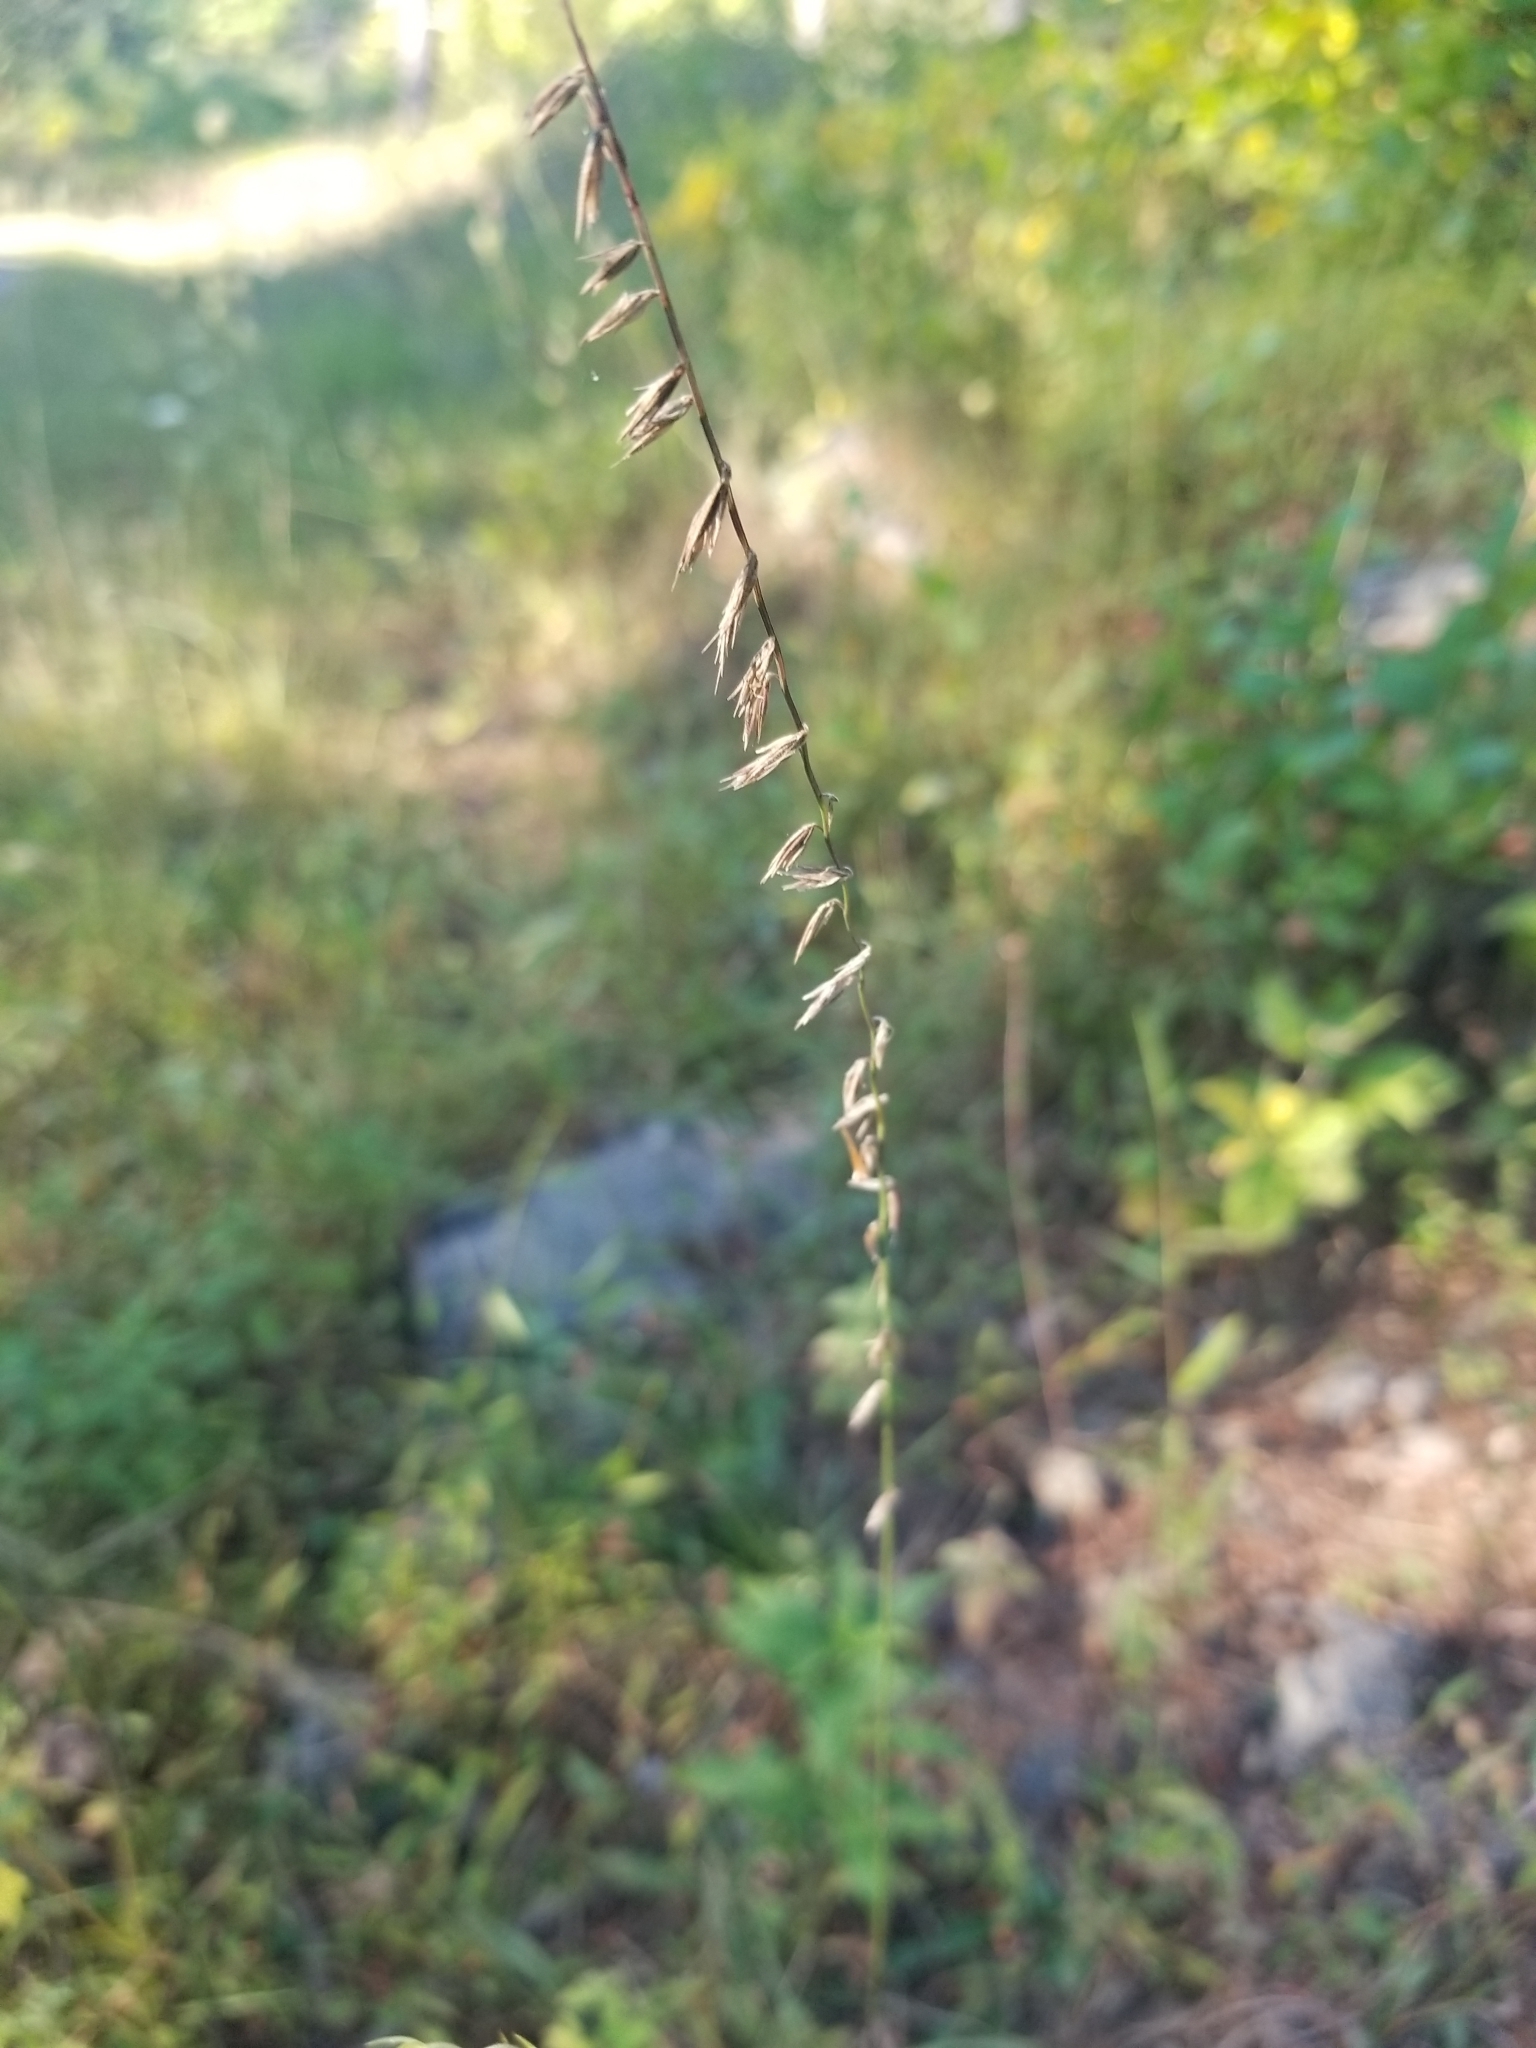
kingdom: Plantae
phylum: Tracheophyta
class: Liliopsida
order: Poales
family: Poaceae
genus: Bouteloua
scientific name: Bouteloua curtipendula
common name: Side-oats grama
